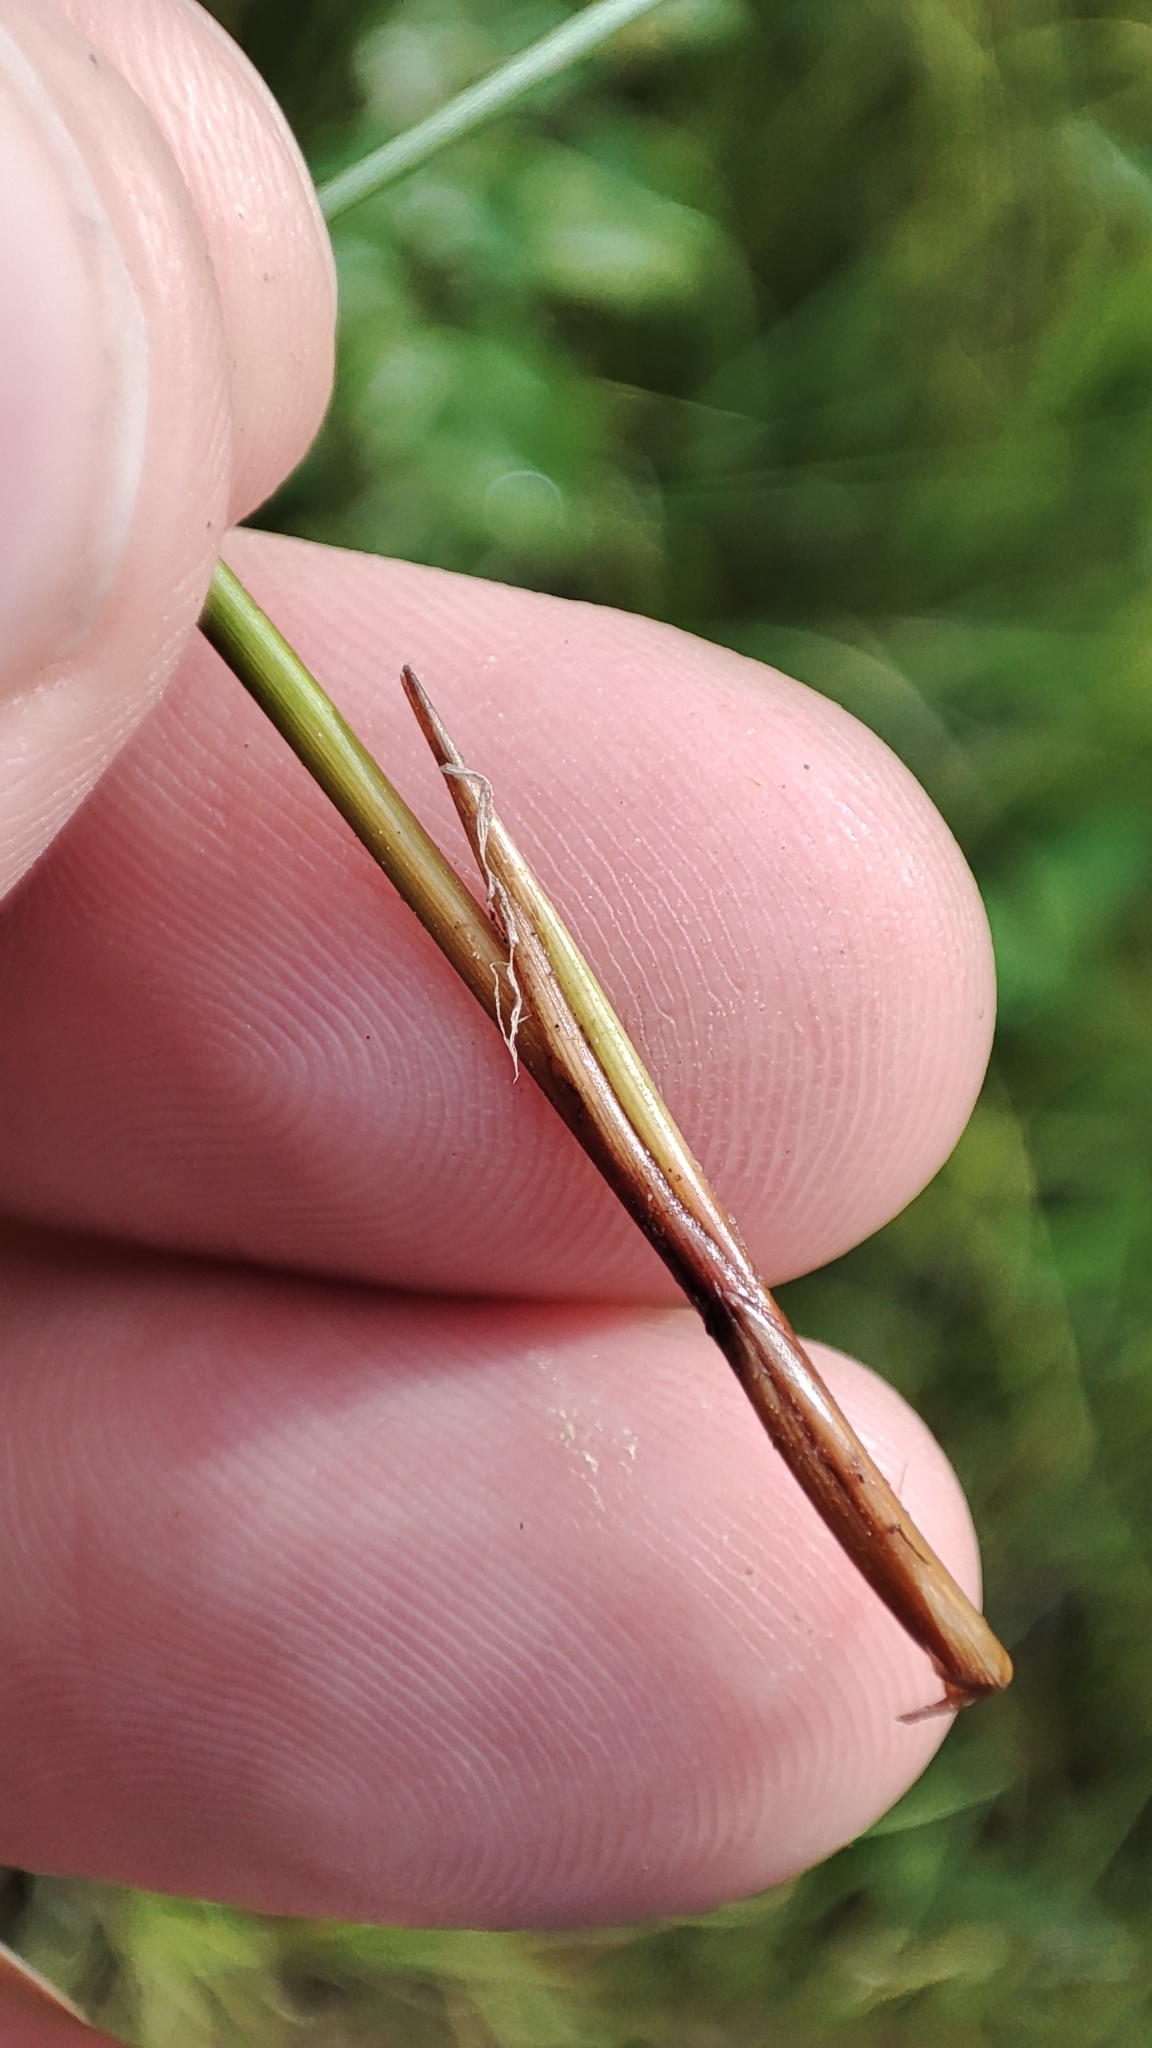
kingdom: Plantae
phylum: Tracheophyta
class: Liliopsida
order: Poales
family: Juncaceae
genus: Juncus
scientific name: Juncus filiformis
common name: Thread rush
